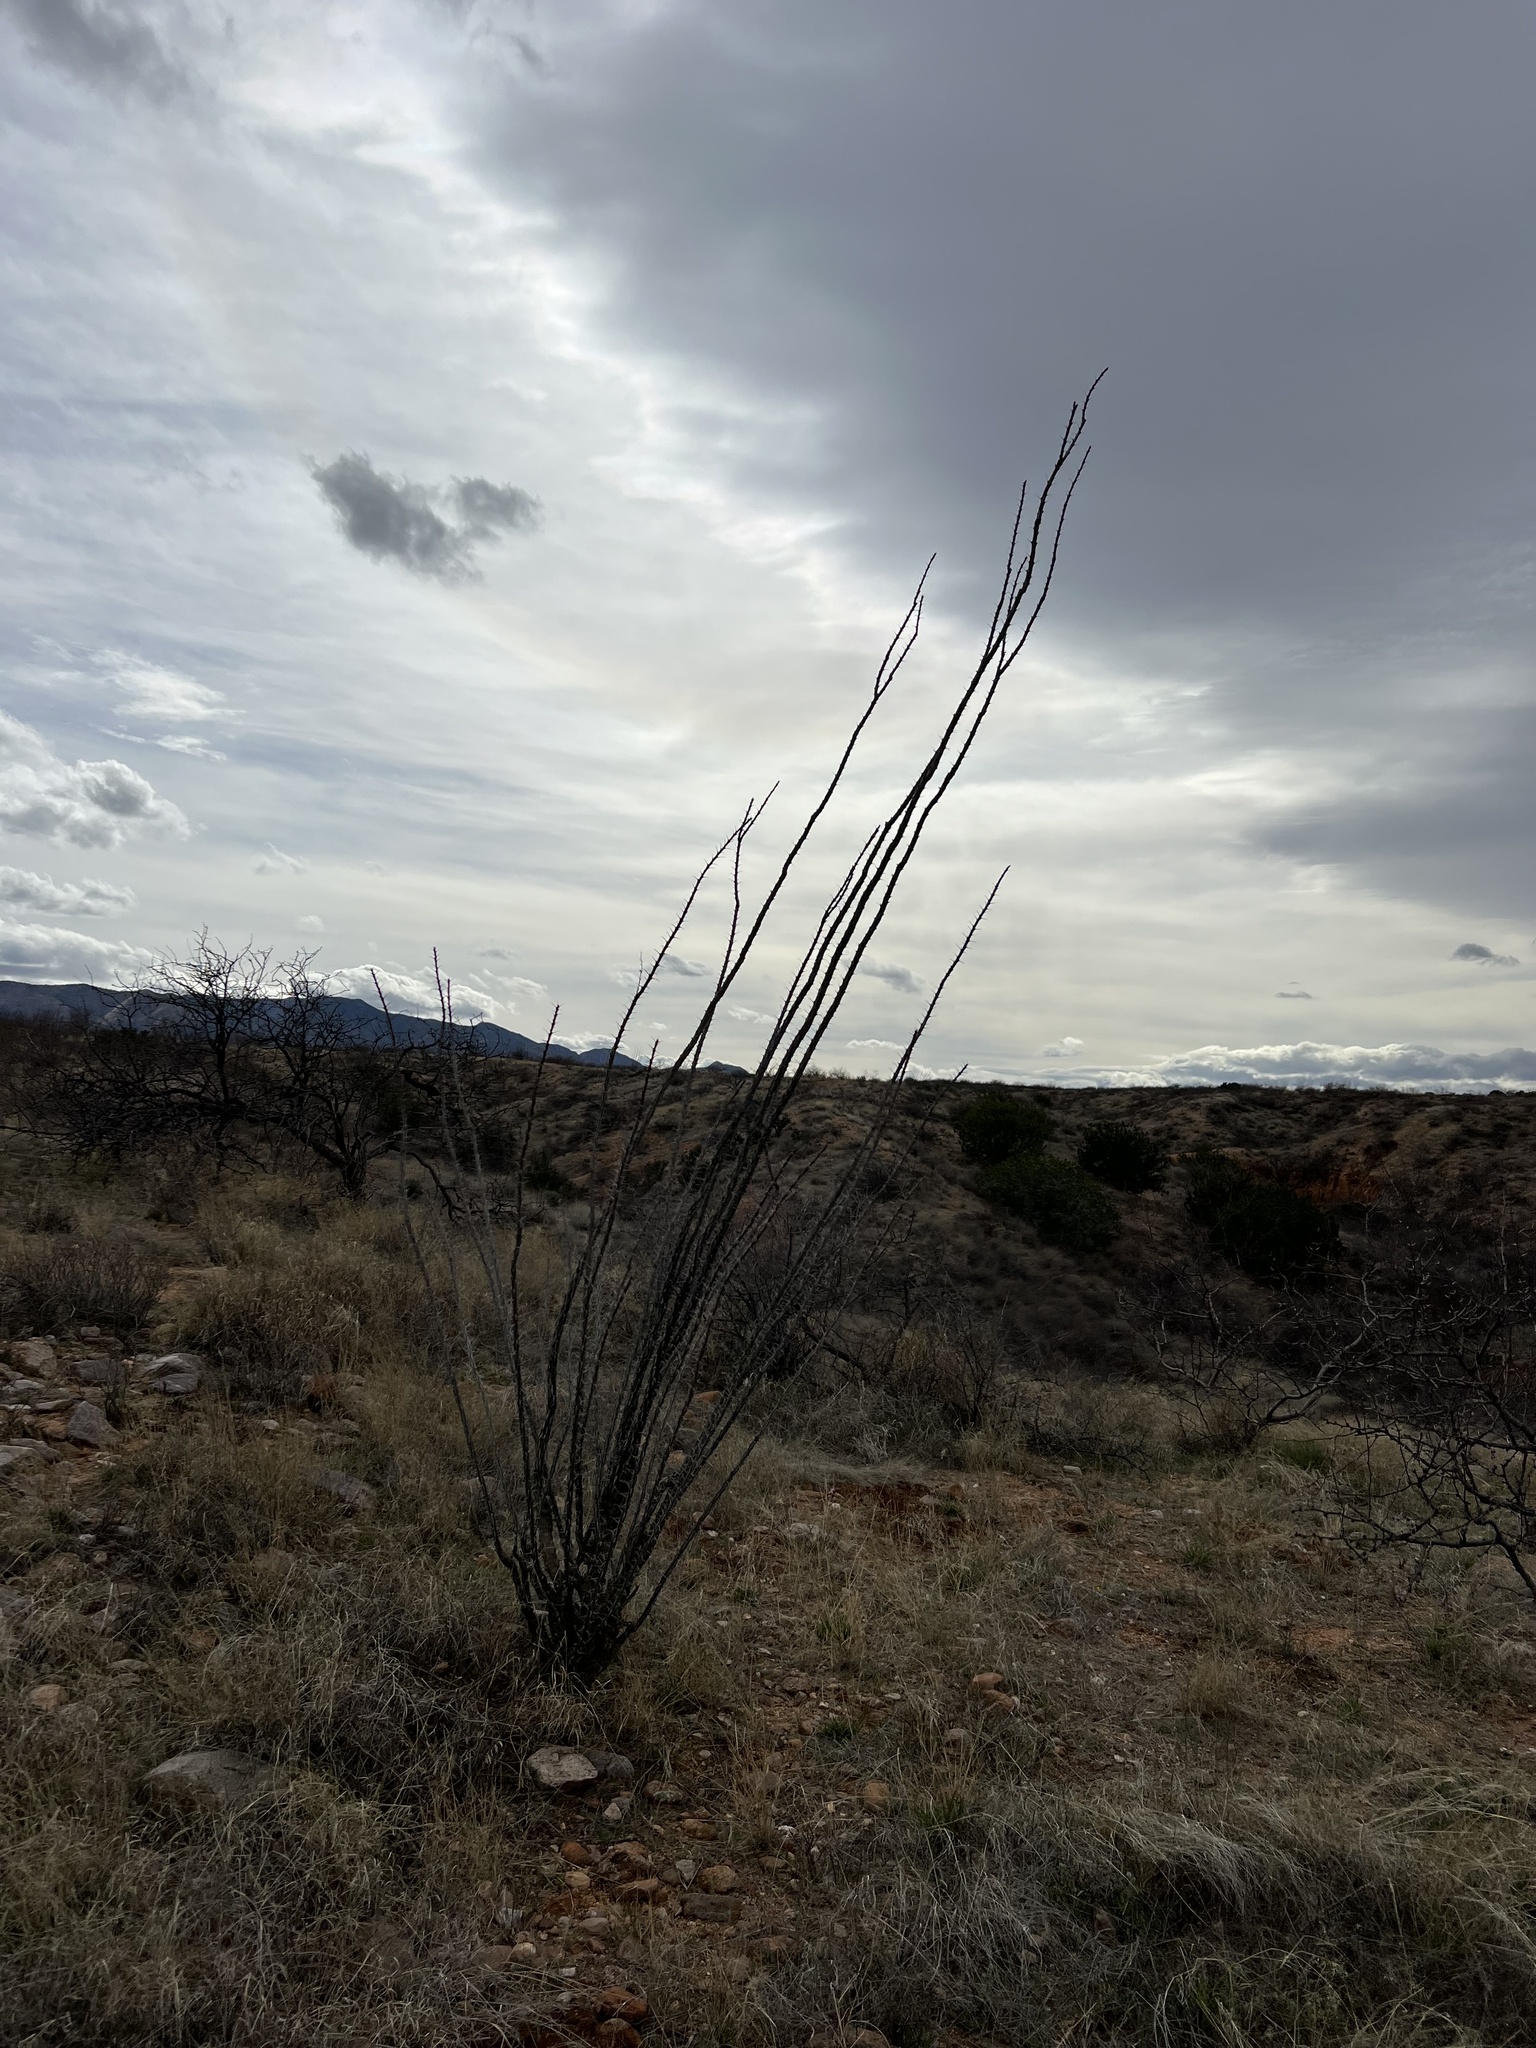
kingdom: Plantae
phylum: Tracheophyta
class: Magnoliopsida
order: Ericales
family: Fouquieriaceae
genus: Fouquieria
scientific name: Fouquieria splendens
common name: Vine-cactus
